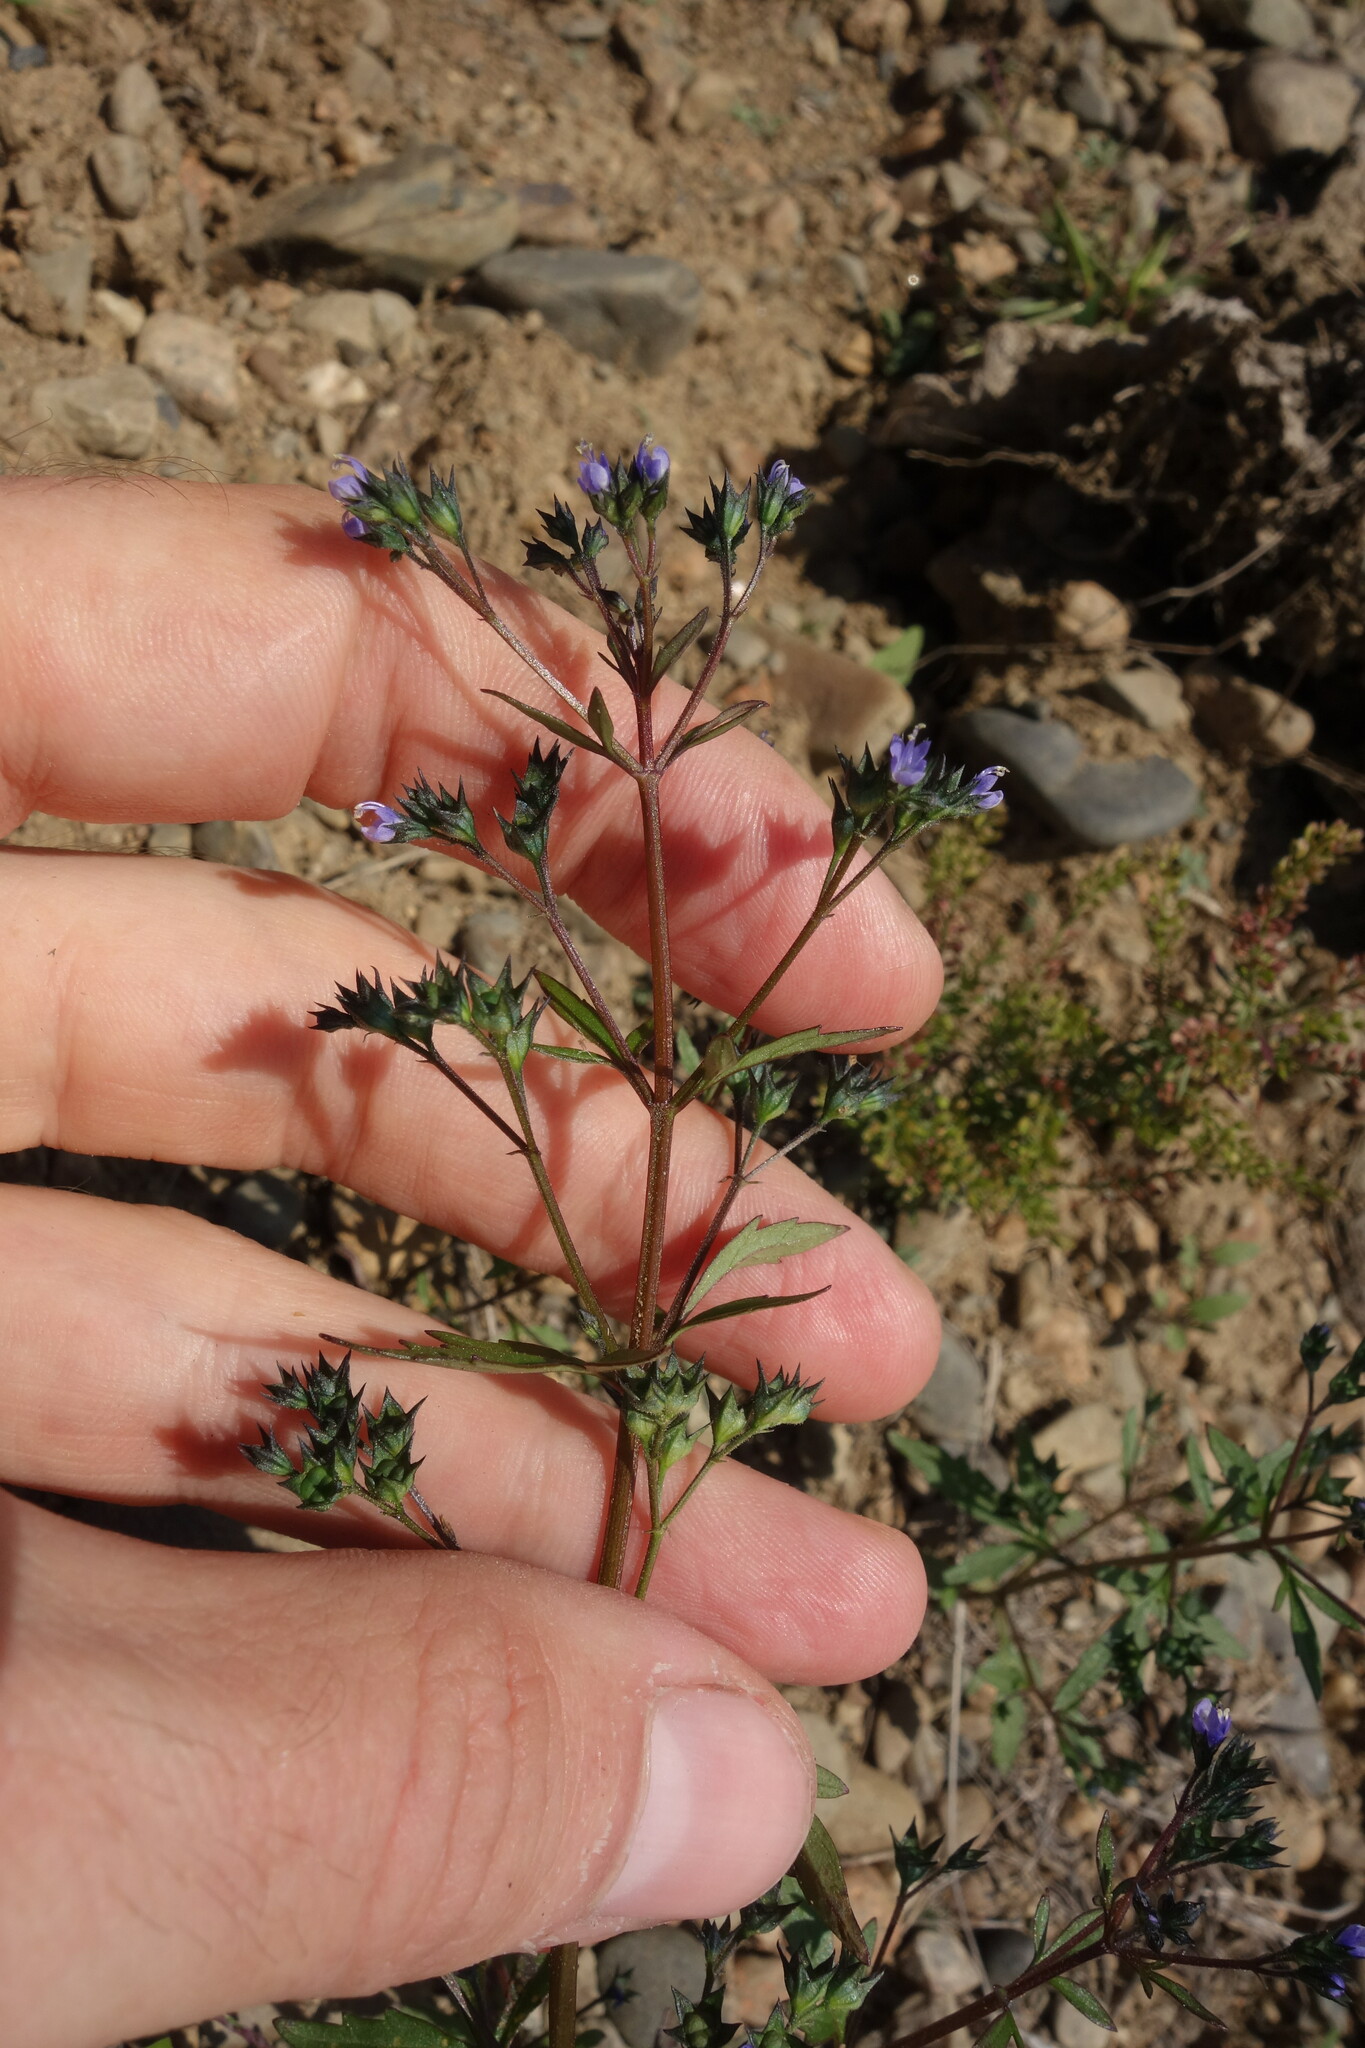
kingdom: Plantae
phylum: Tracheophyta
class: Magnoliopsida
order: Lamiales
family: Lamiaceae
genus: Amethystea
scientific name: Amethystea caerulea
